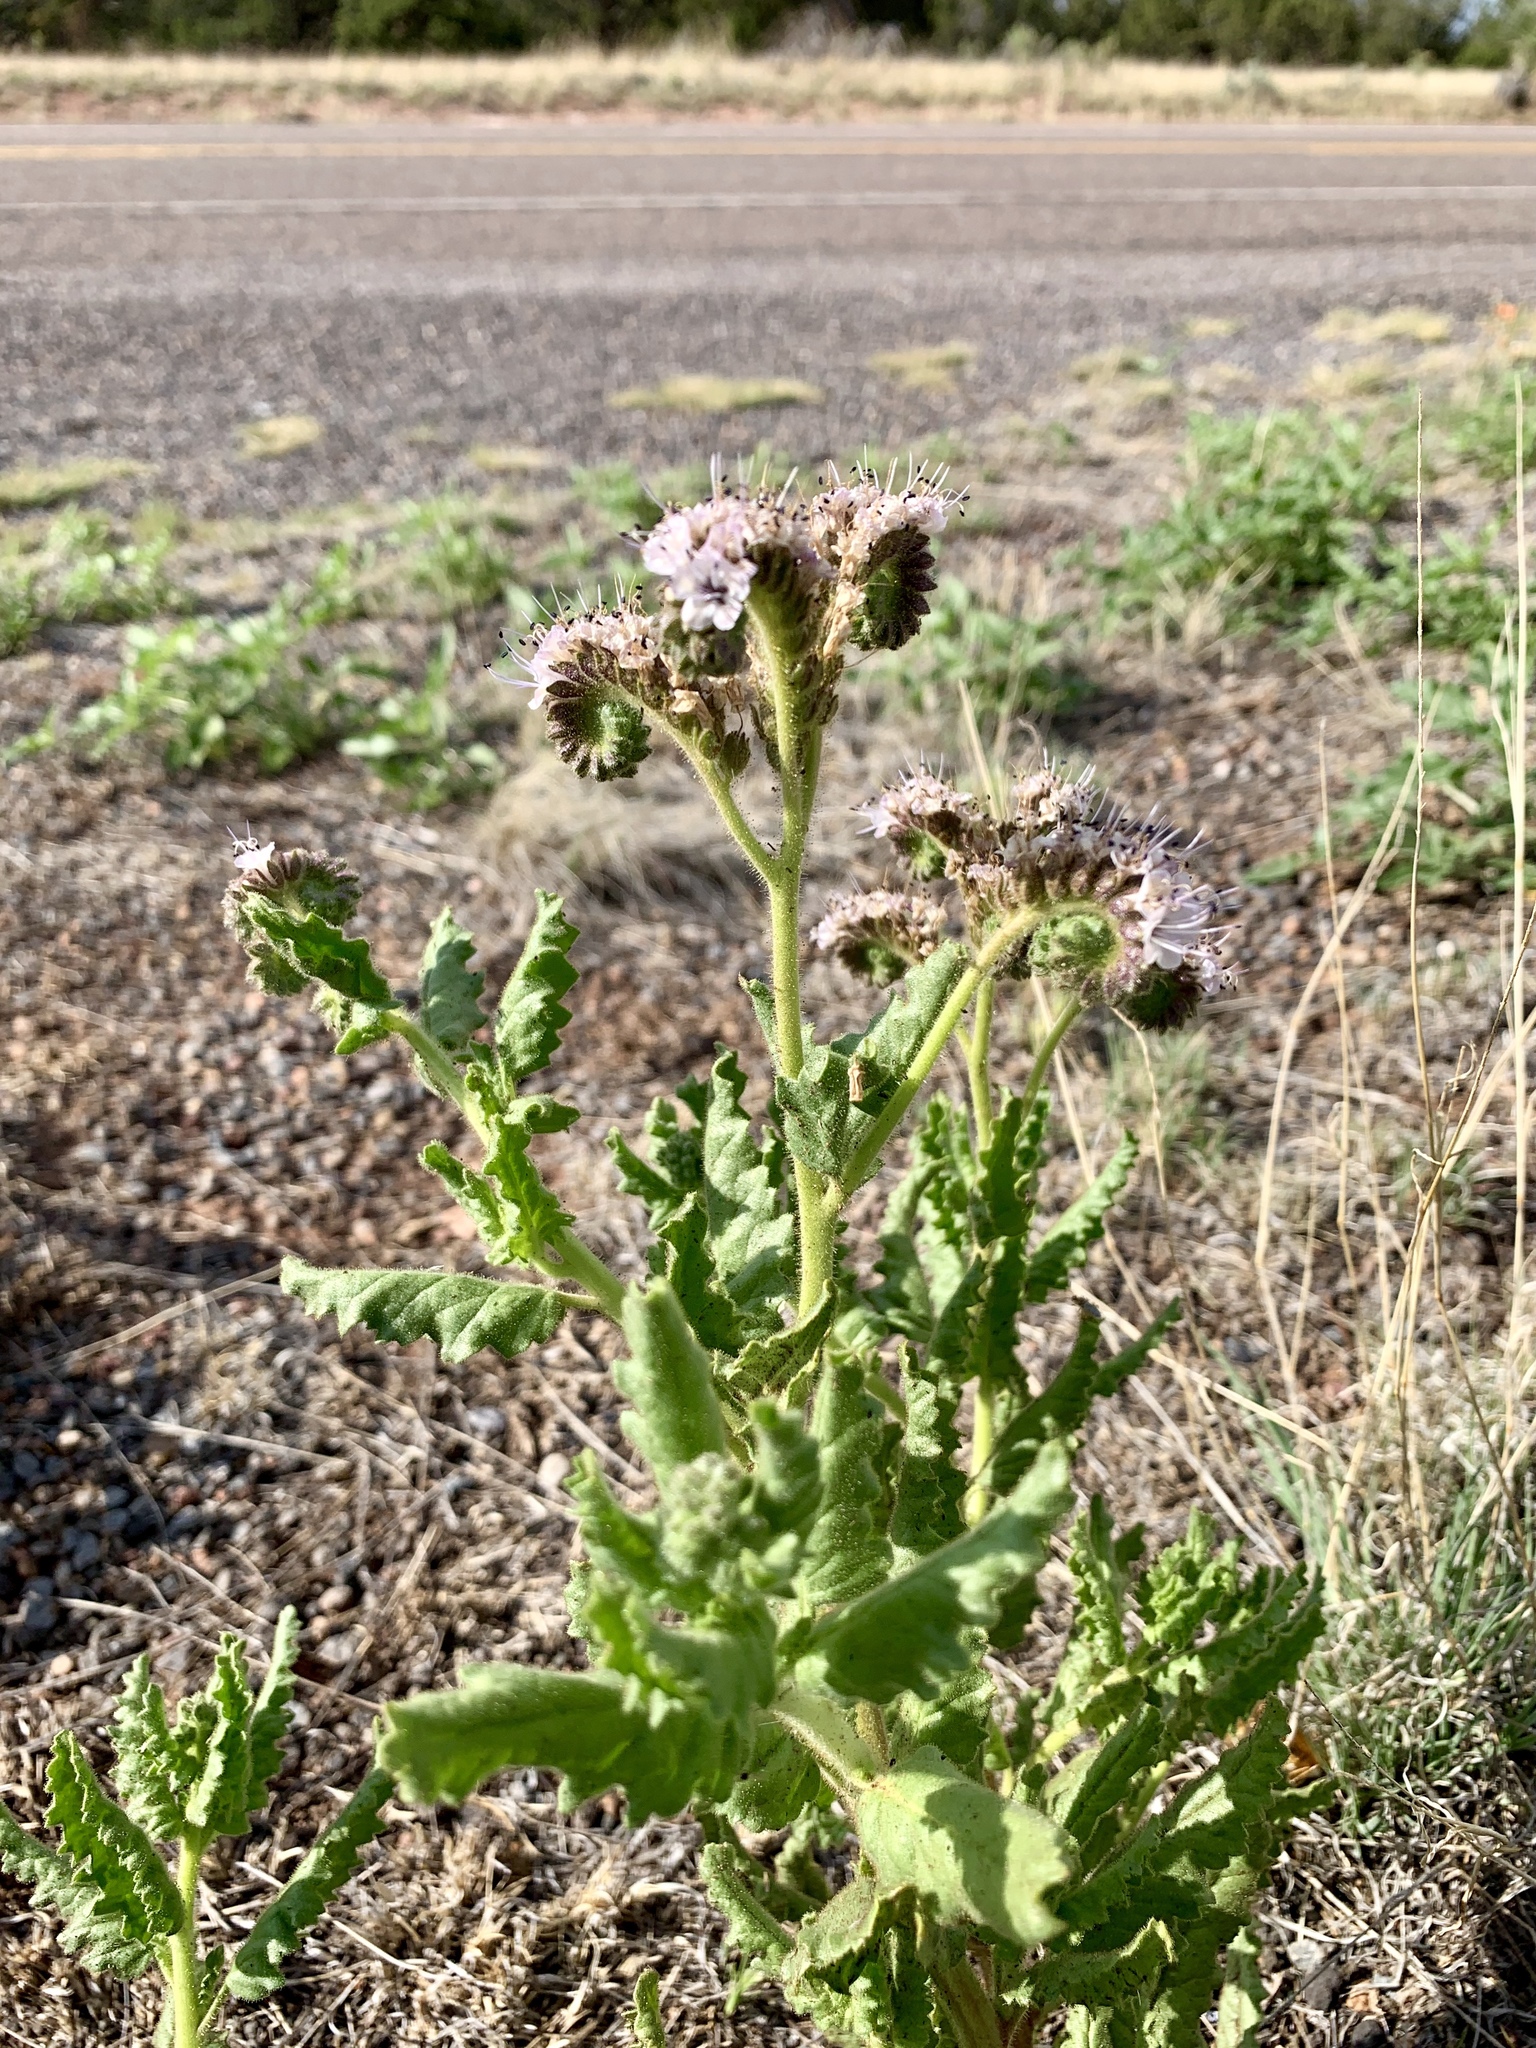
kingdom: Plantae
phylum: Tracheophyta
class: Magnoliopsida
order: Boraginales
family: Hydrophyllaceae
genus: Phacelia
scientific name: Phacelia pinkavae
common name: Pinkava's phacelia
